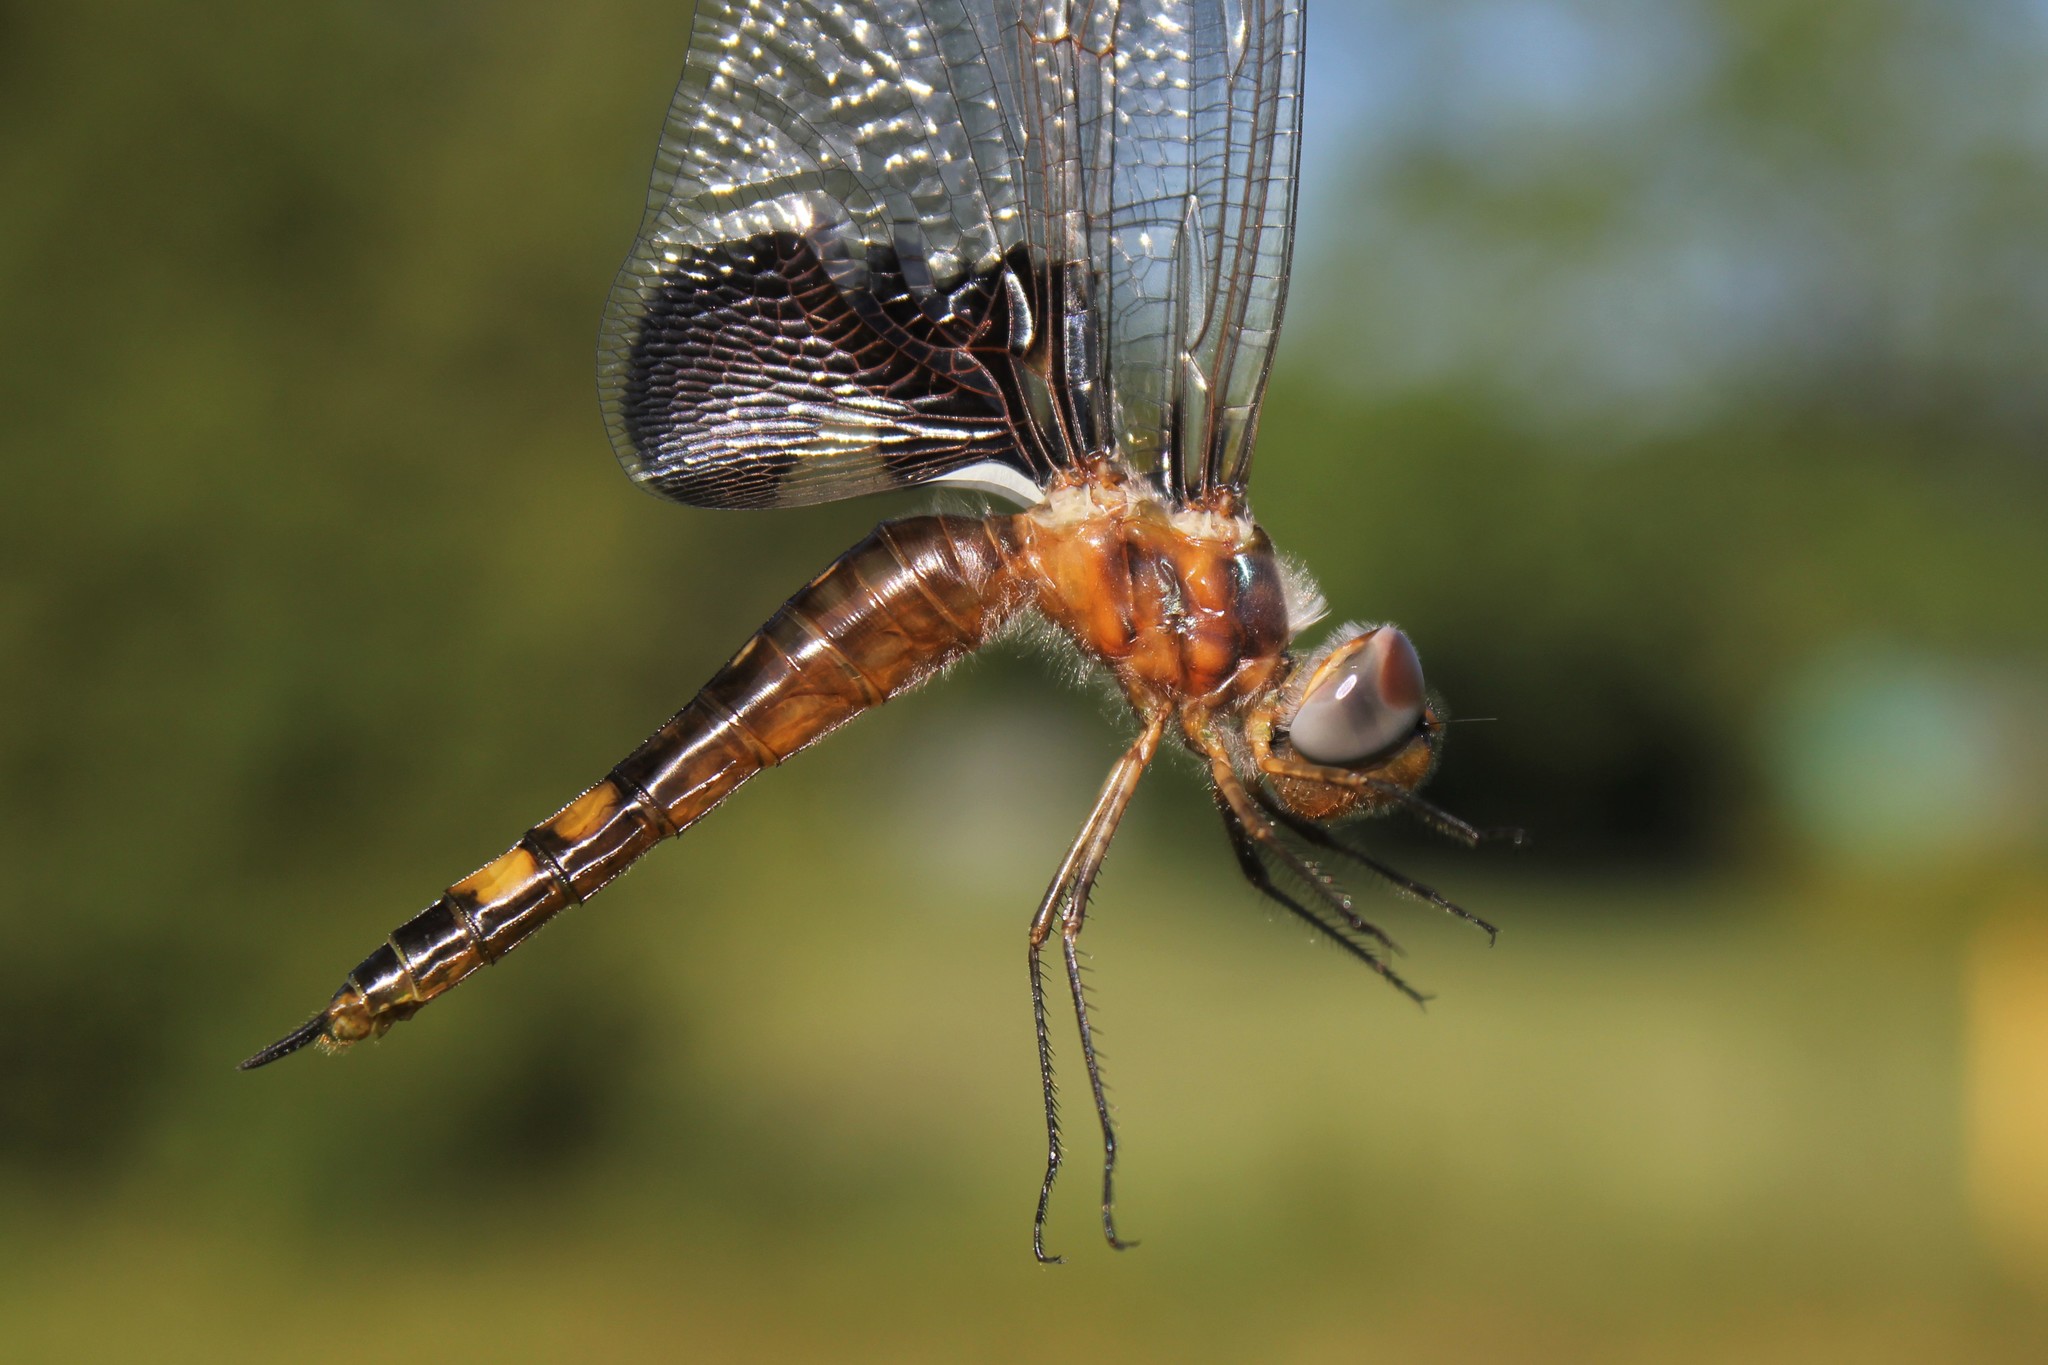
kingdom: Animalia
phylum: Arthropoda
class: Insecta
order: Odonata
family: Libellulidae
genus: Tramea
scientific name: Tramea lacerata
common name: Black saddlebags
